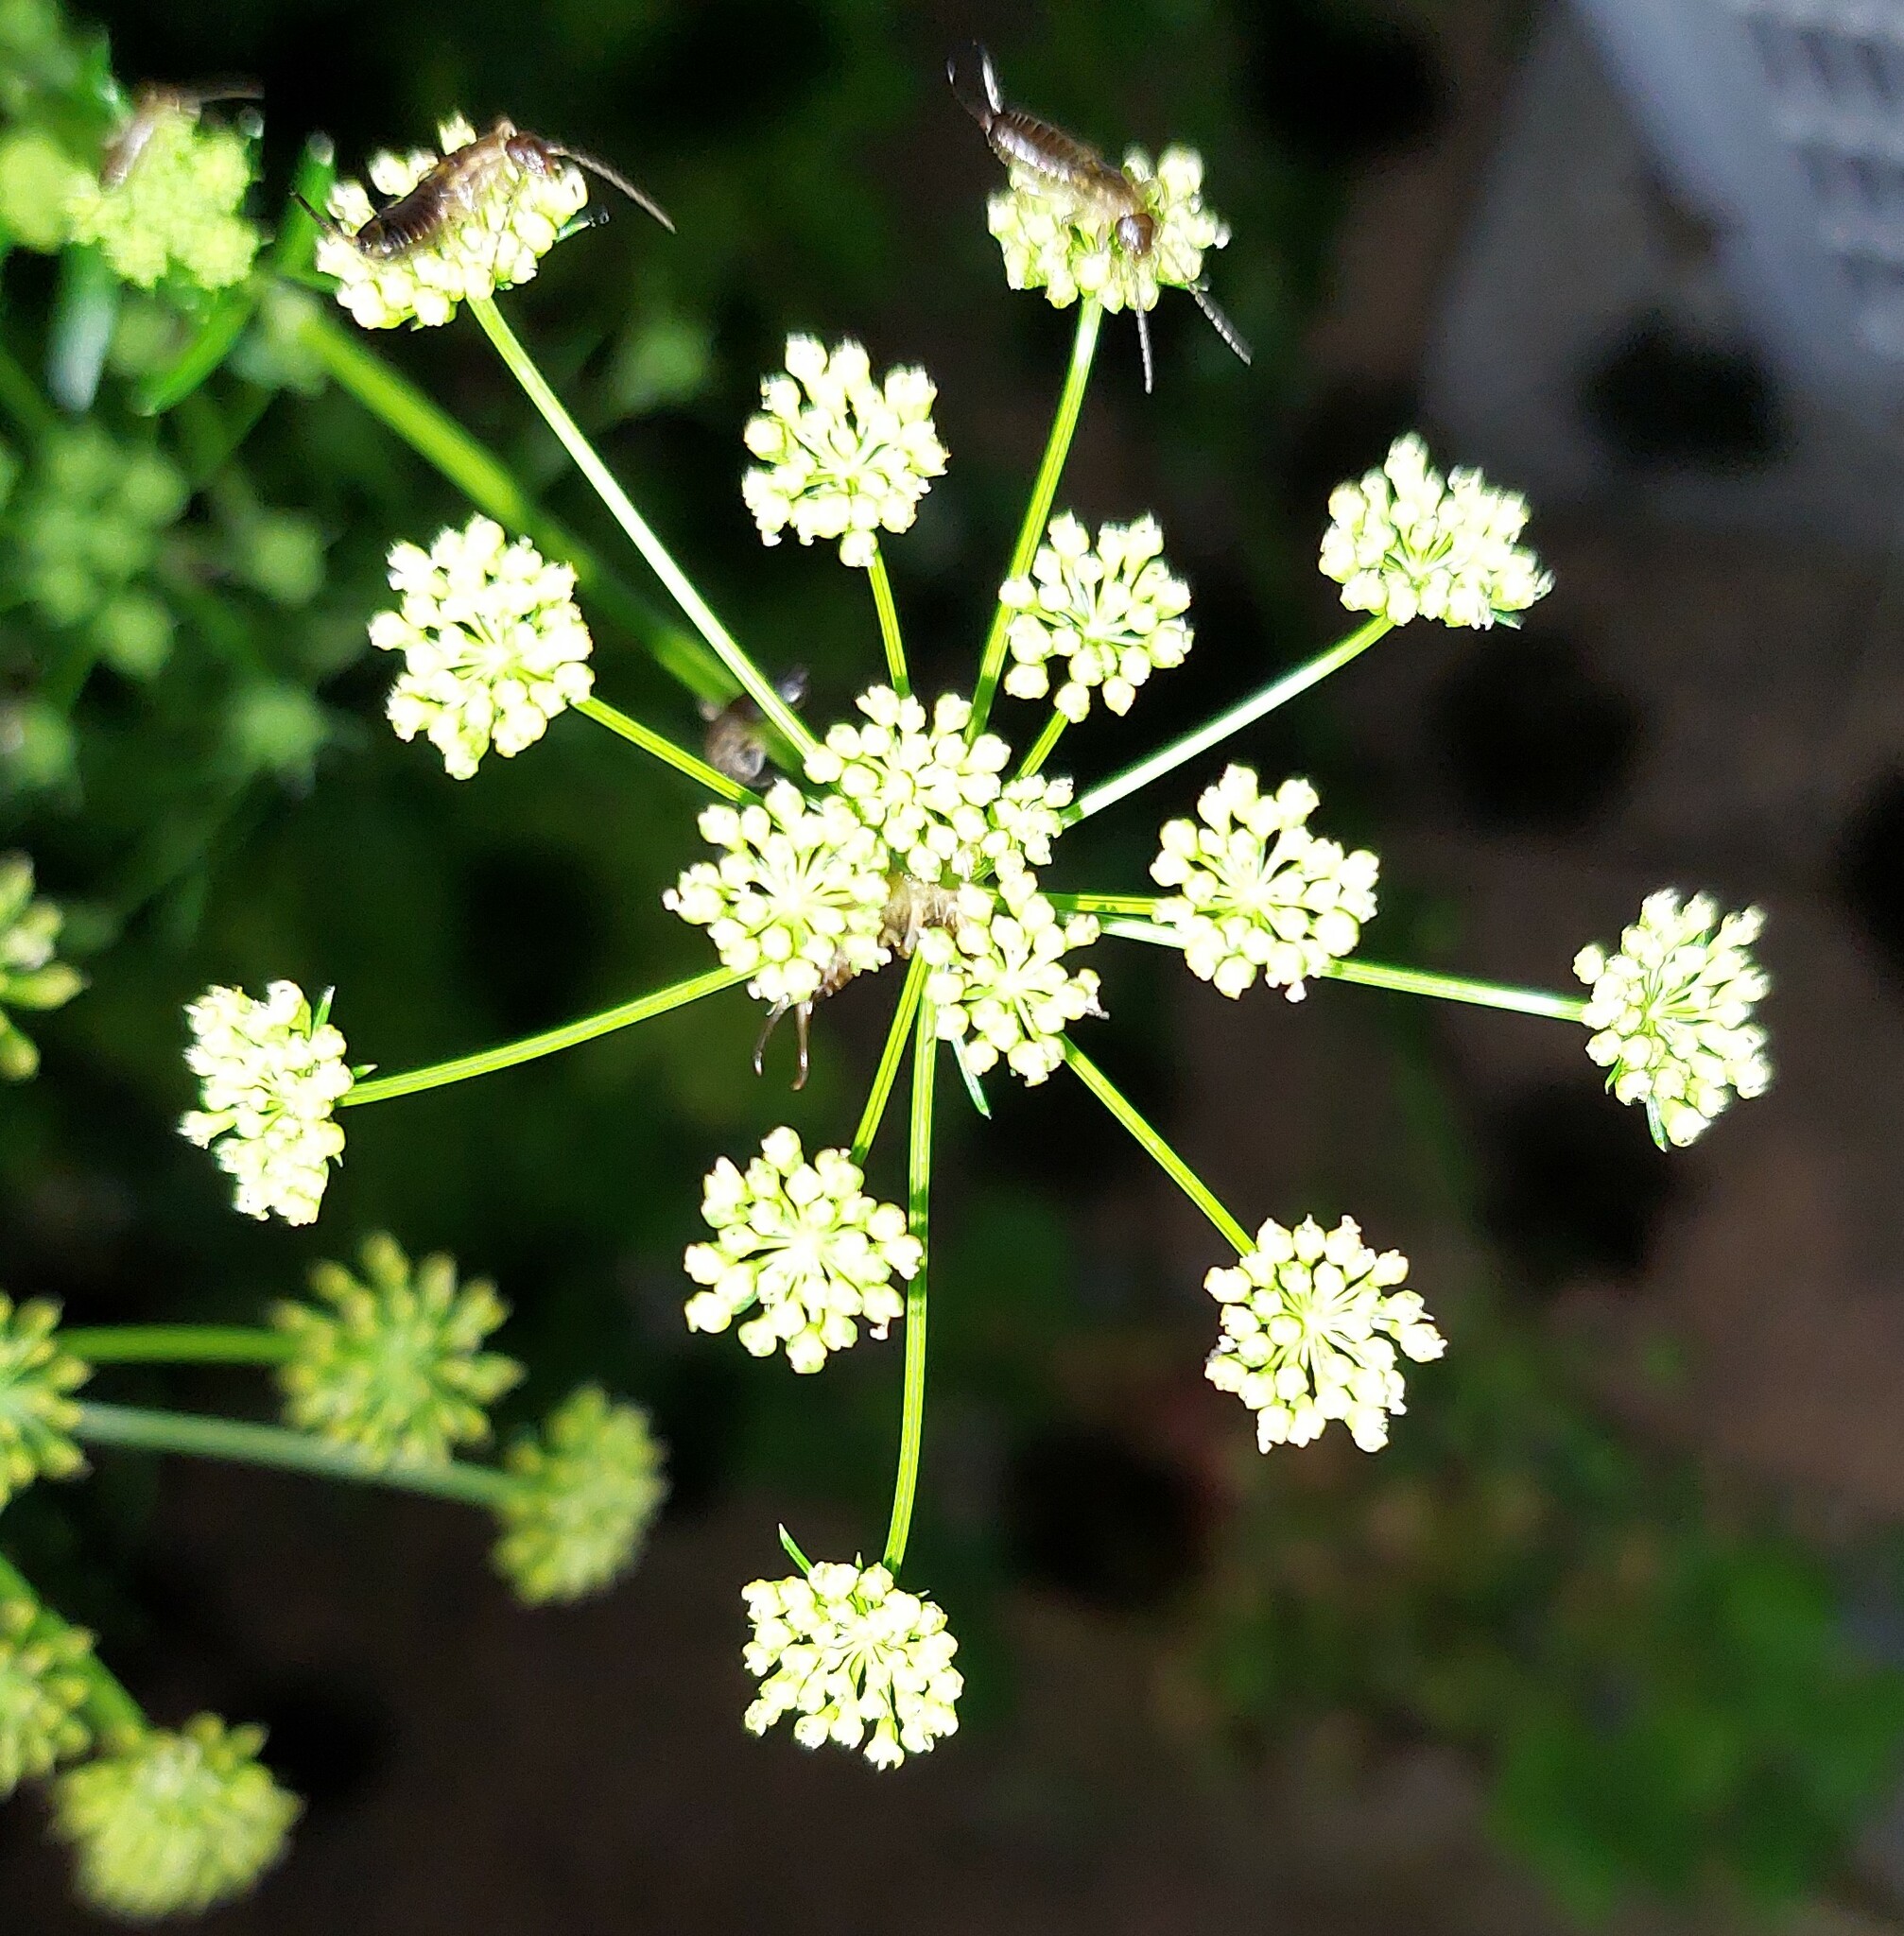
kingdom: Animalia
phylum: Arthropoda
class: Insecta
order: Dermaptera
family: Forficulidae
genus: Forficula
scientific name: Forficula dentata
